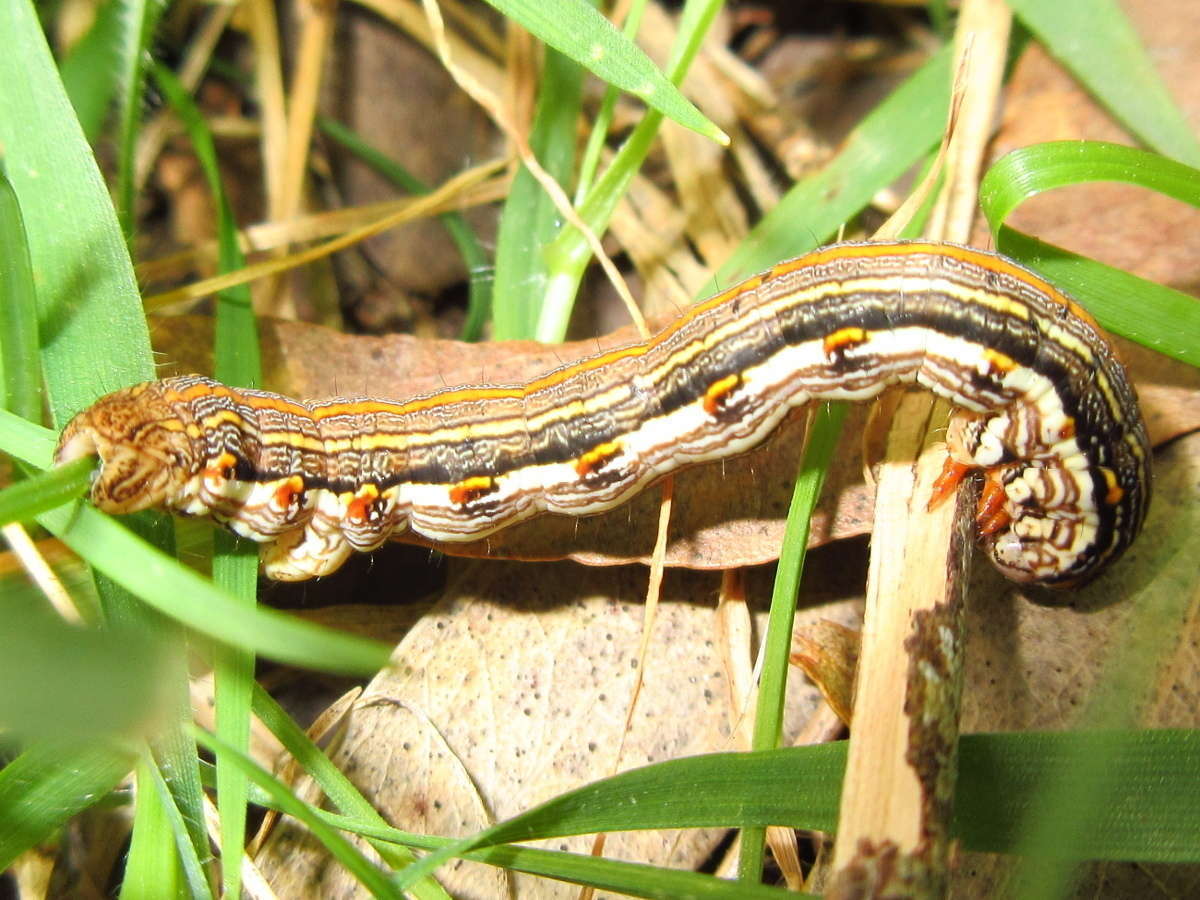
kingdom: Animalia
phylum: Arthropoda
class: Insecta
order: Lepidoptera
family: Geometridae
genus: Chlenias
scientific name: Chlenias zonaea
